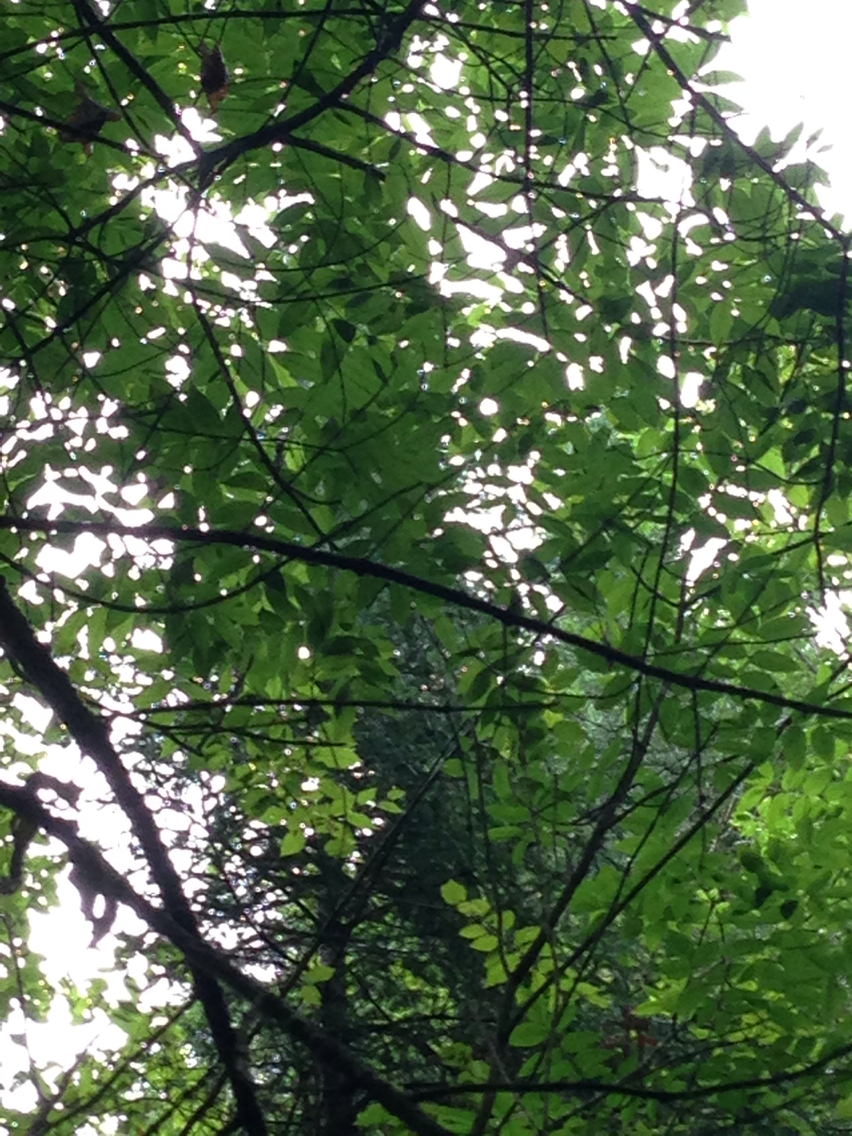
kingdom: Plantae
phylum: Tracheophyta
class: Magnoliopsida
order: Lamiales
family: Oleaceae
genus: Fraxinus
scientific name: Fraxinus nigra
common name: Black ash
